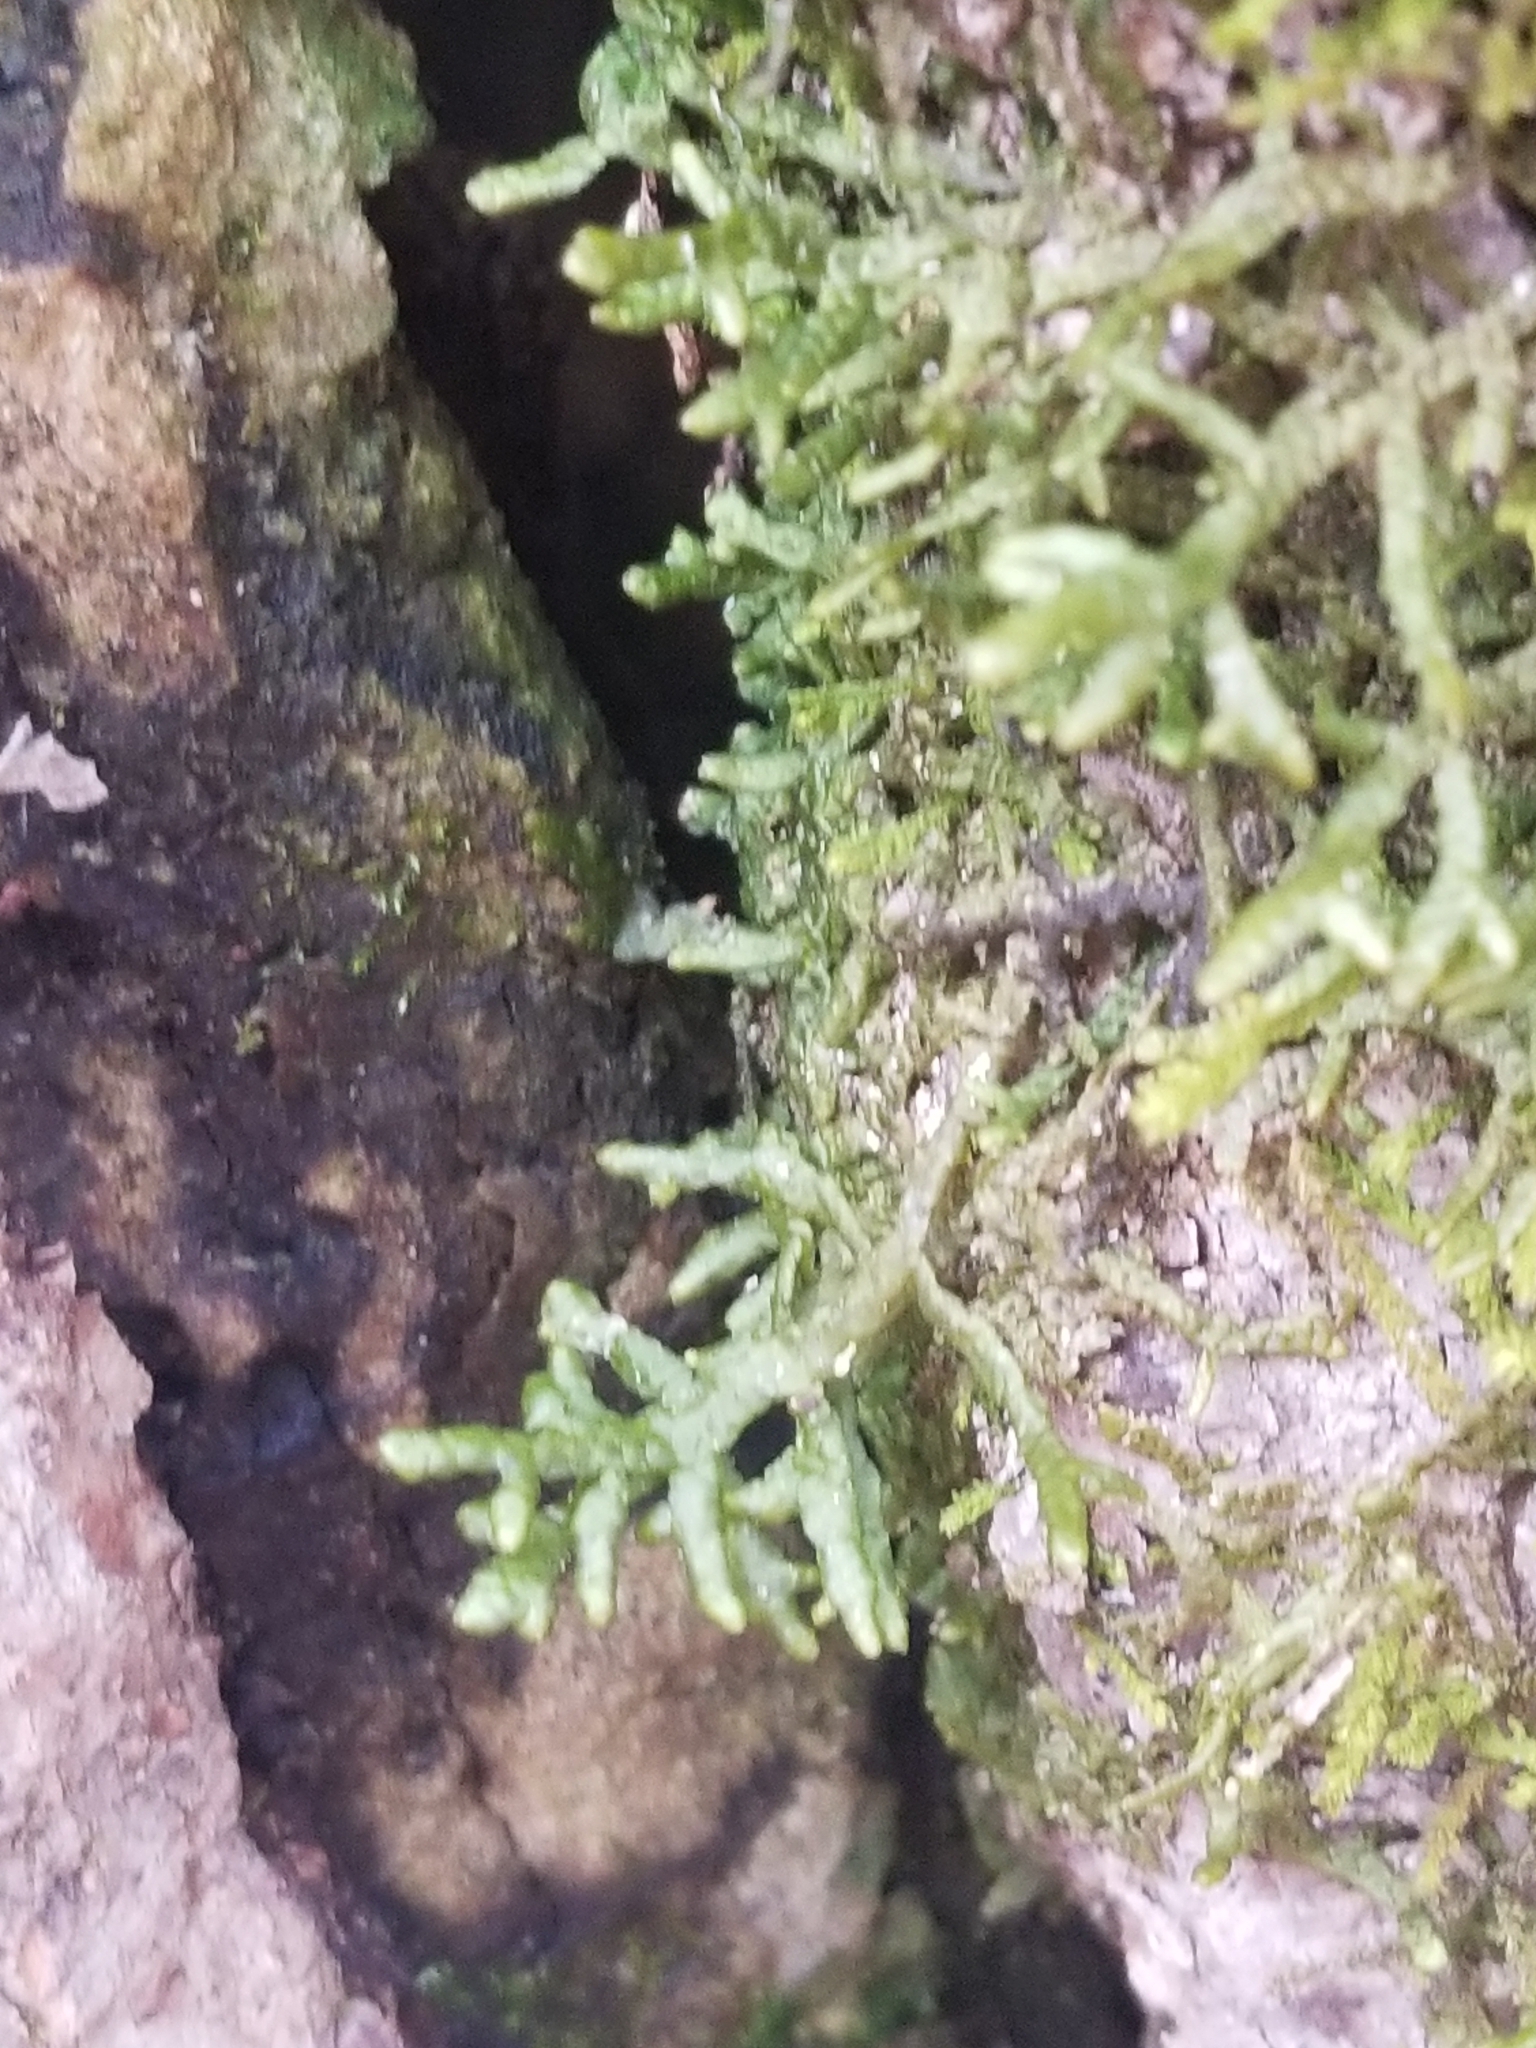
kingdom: Plantae
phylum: Marchantiophyta
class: Jungermanniopsida
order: Porellales
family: Porellaceae
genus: Porella
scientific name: Porella platyphylla
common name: Wall scalewort
